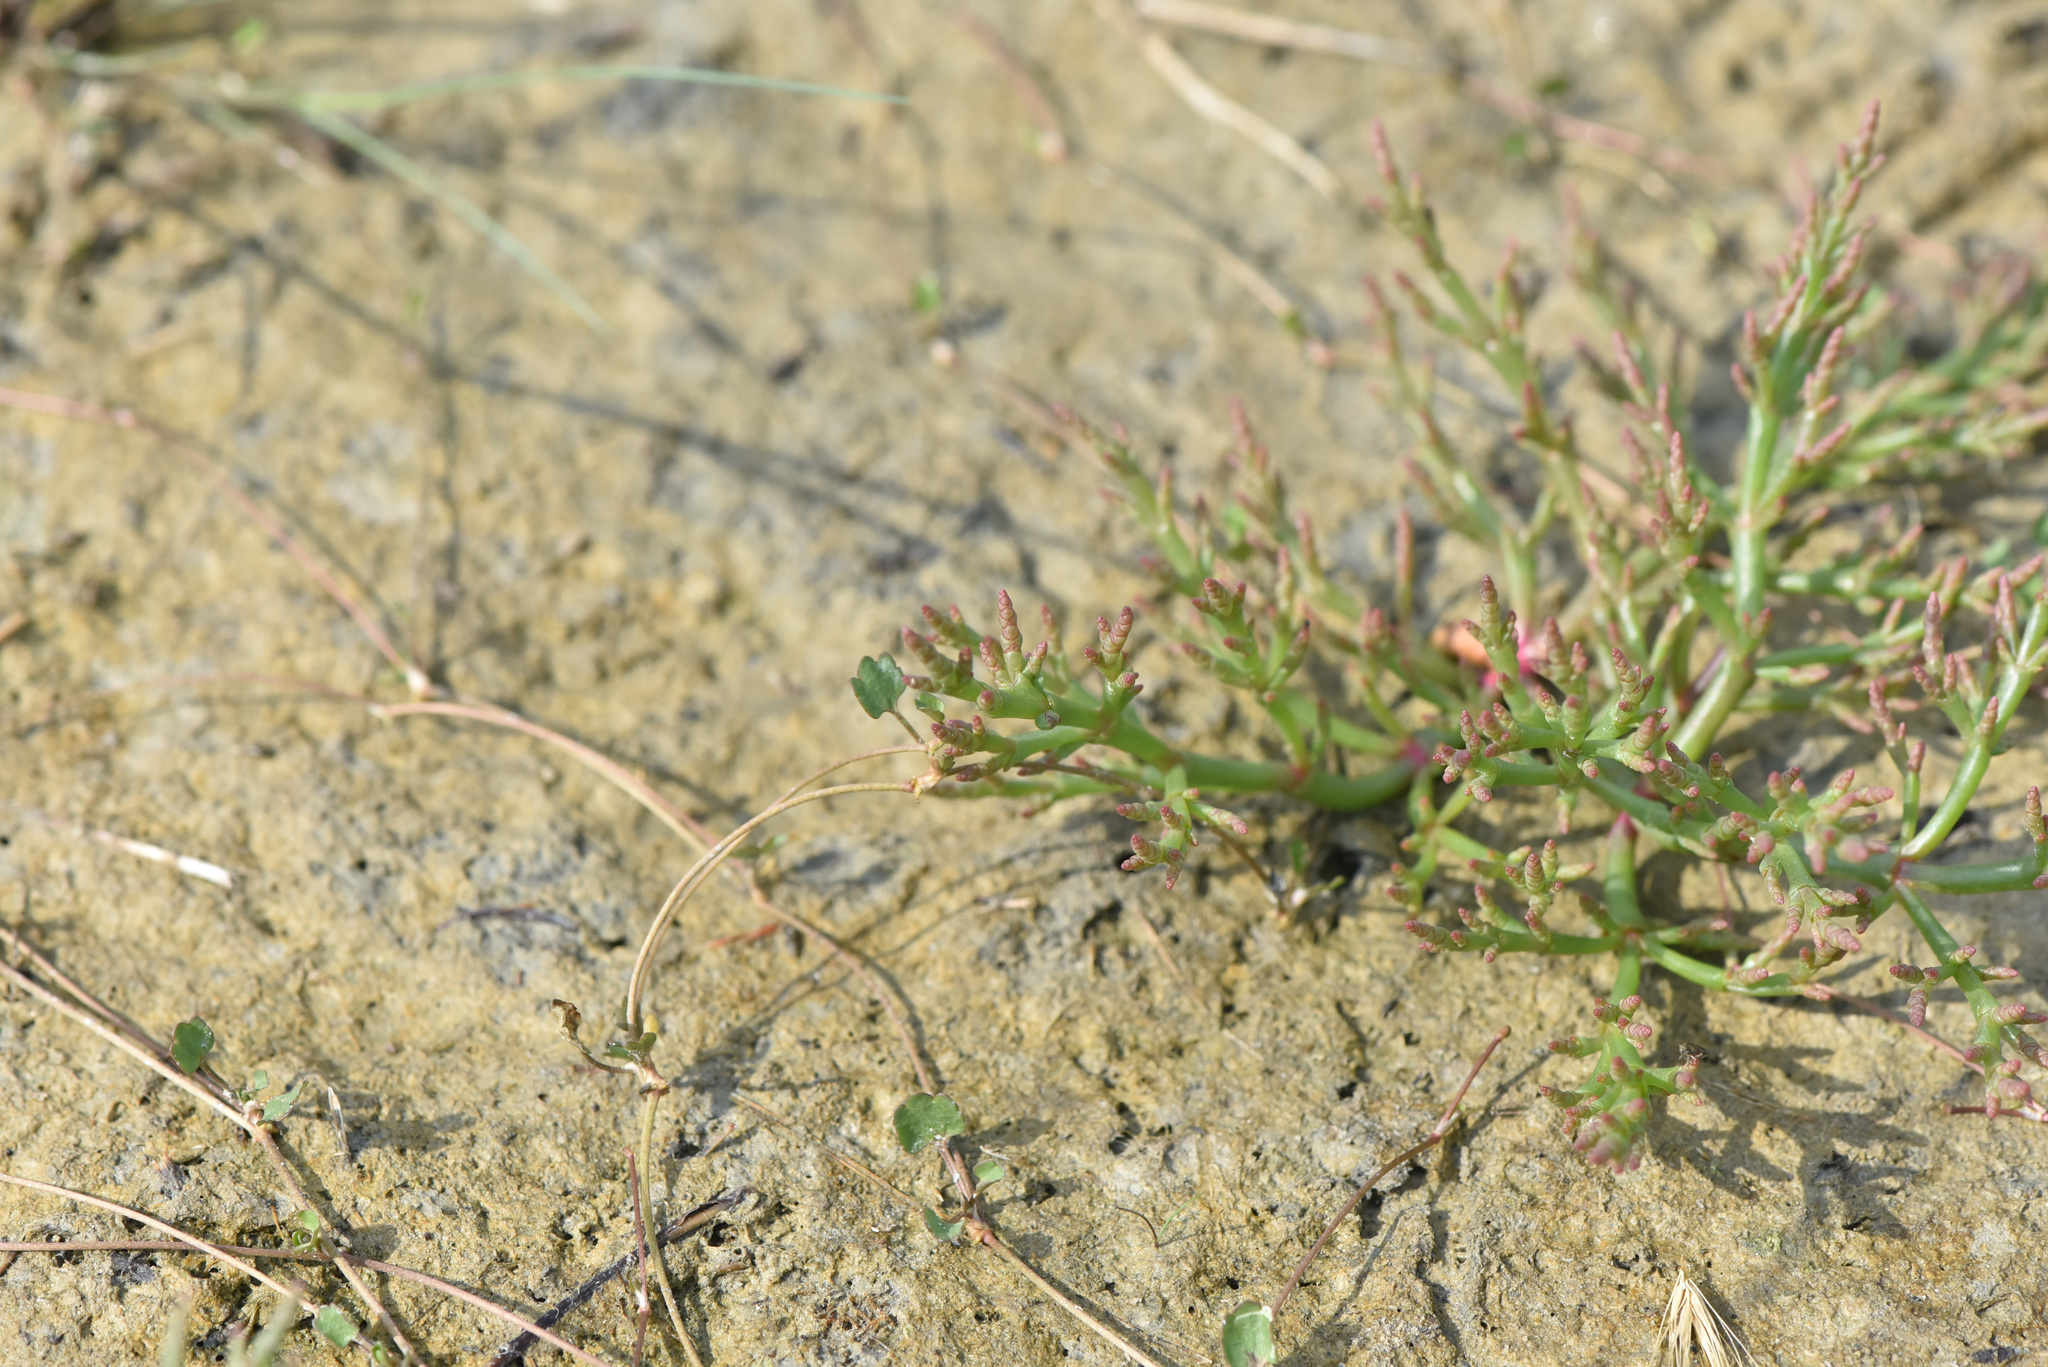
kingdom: Plantae
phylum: Tracheophyta
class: Magnoliopsida
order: Caryophyllales
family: Amaranthaceae
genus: Salicornia
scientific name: Salicornia rubra
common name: Red glasswort
